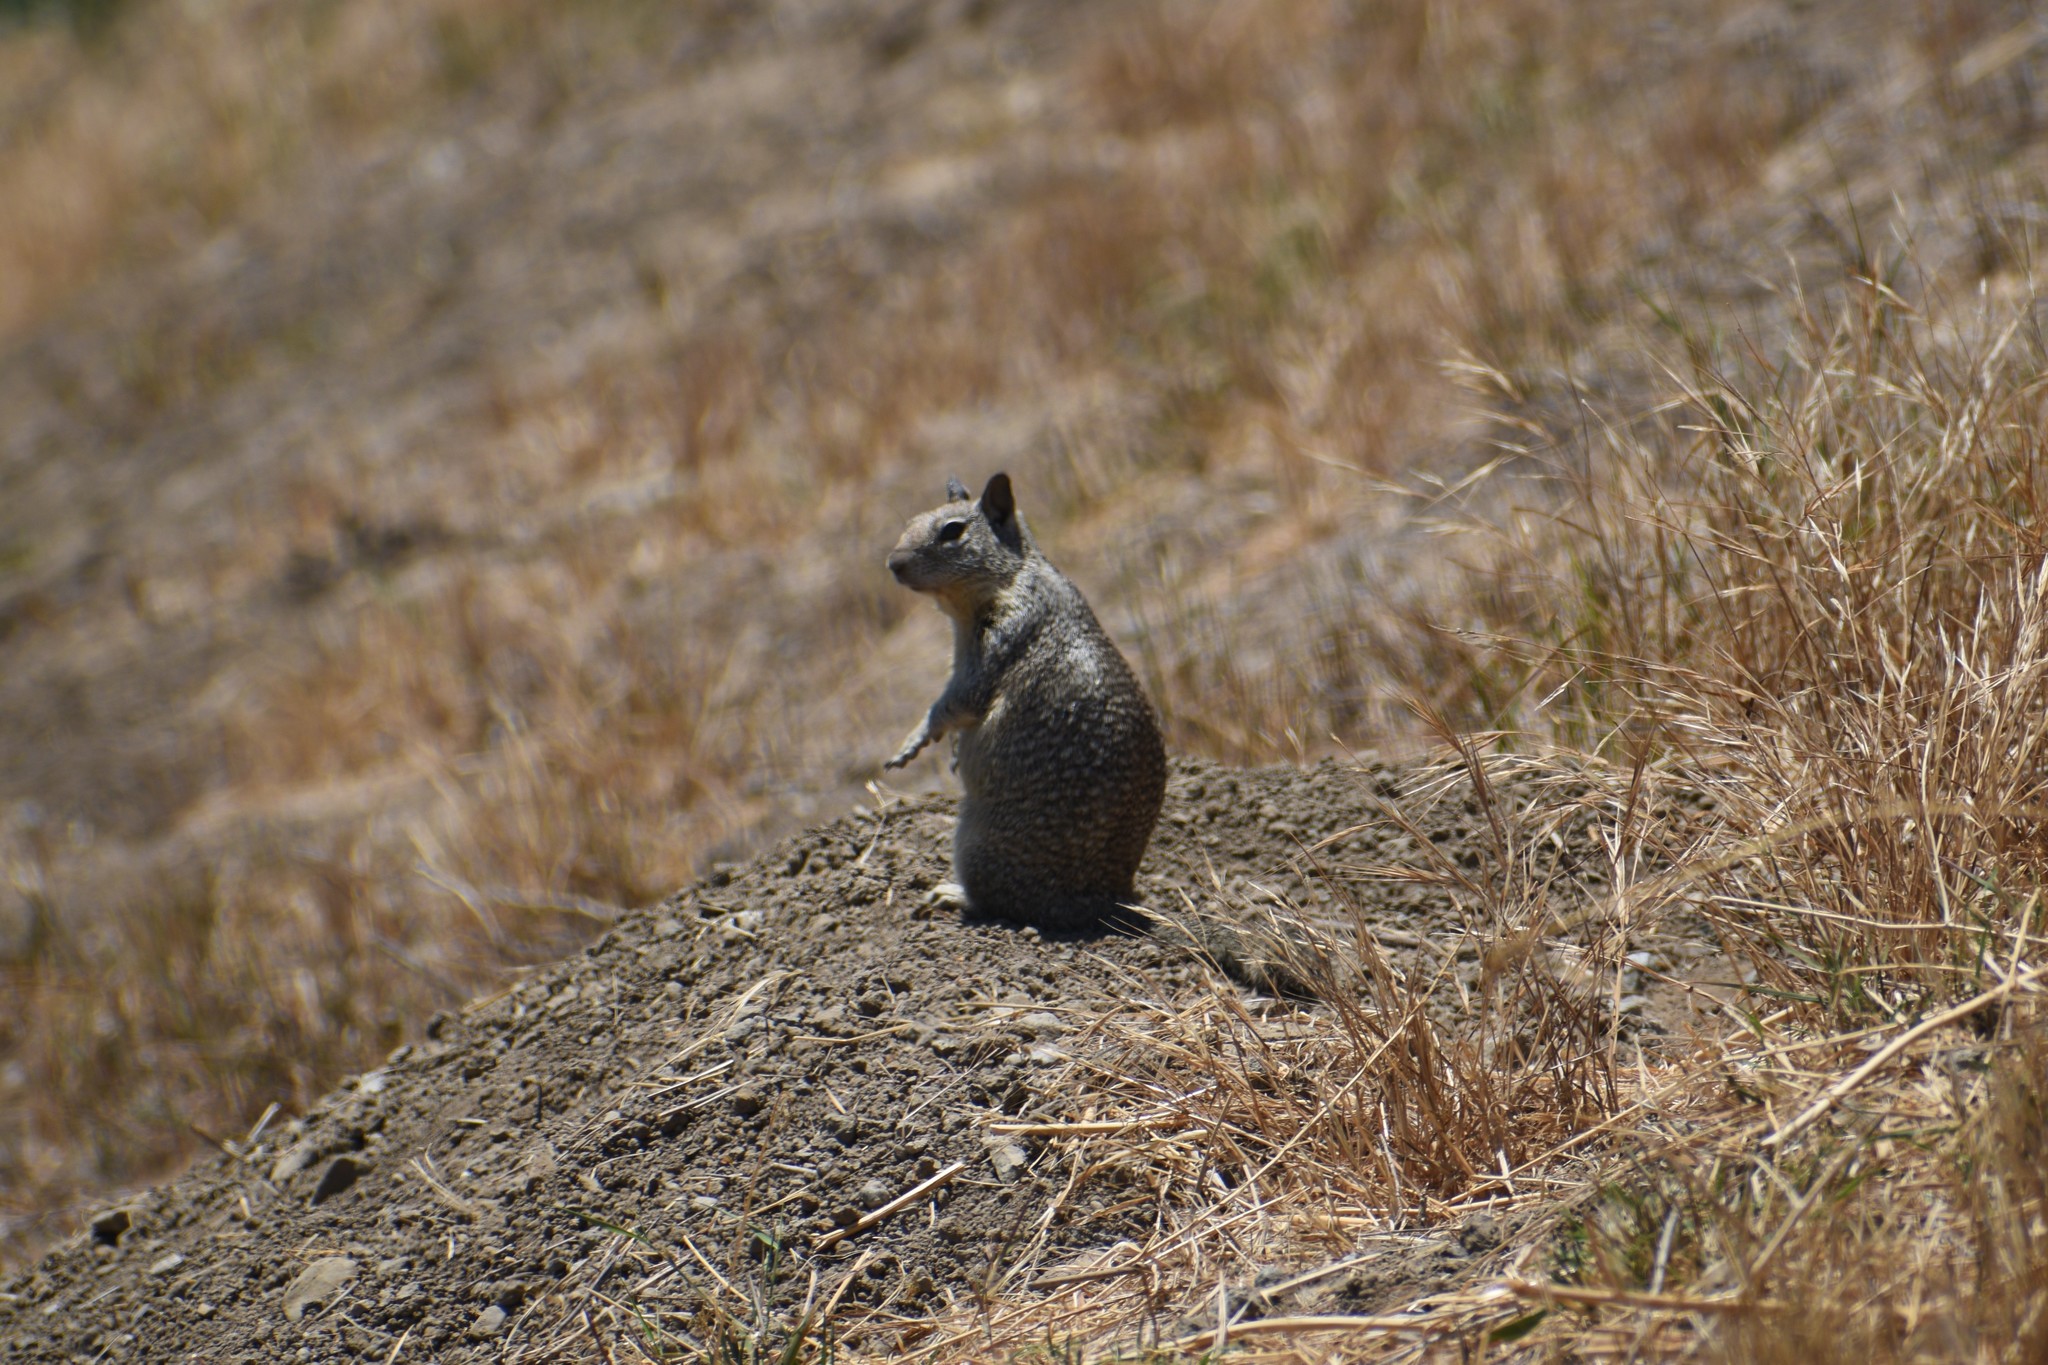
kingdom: Animalia
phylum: Chordata
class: Mammalia
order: Rodentia
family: Sciuridae
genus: Otospermophilus
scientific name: Otospermophilus beecheyi
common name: California ground squirrel
